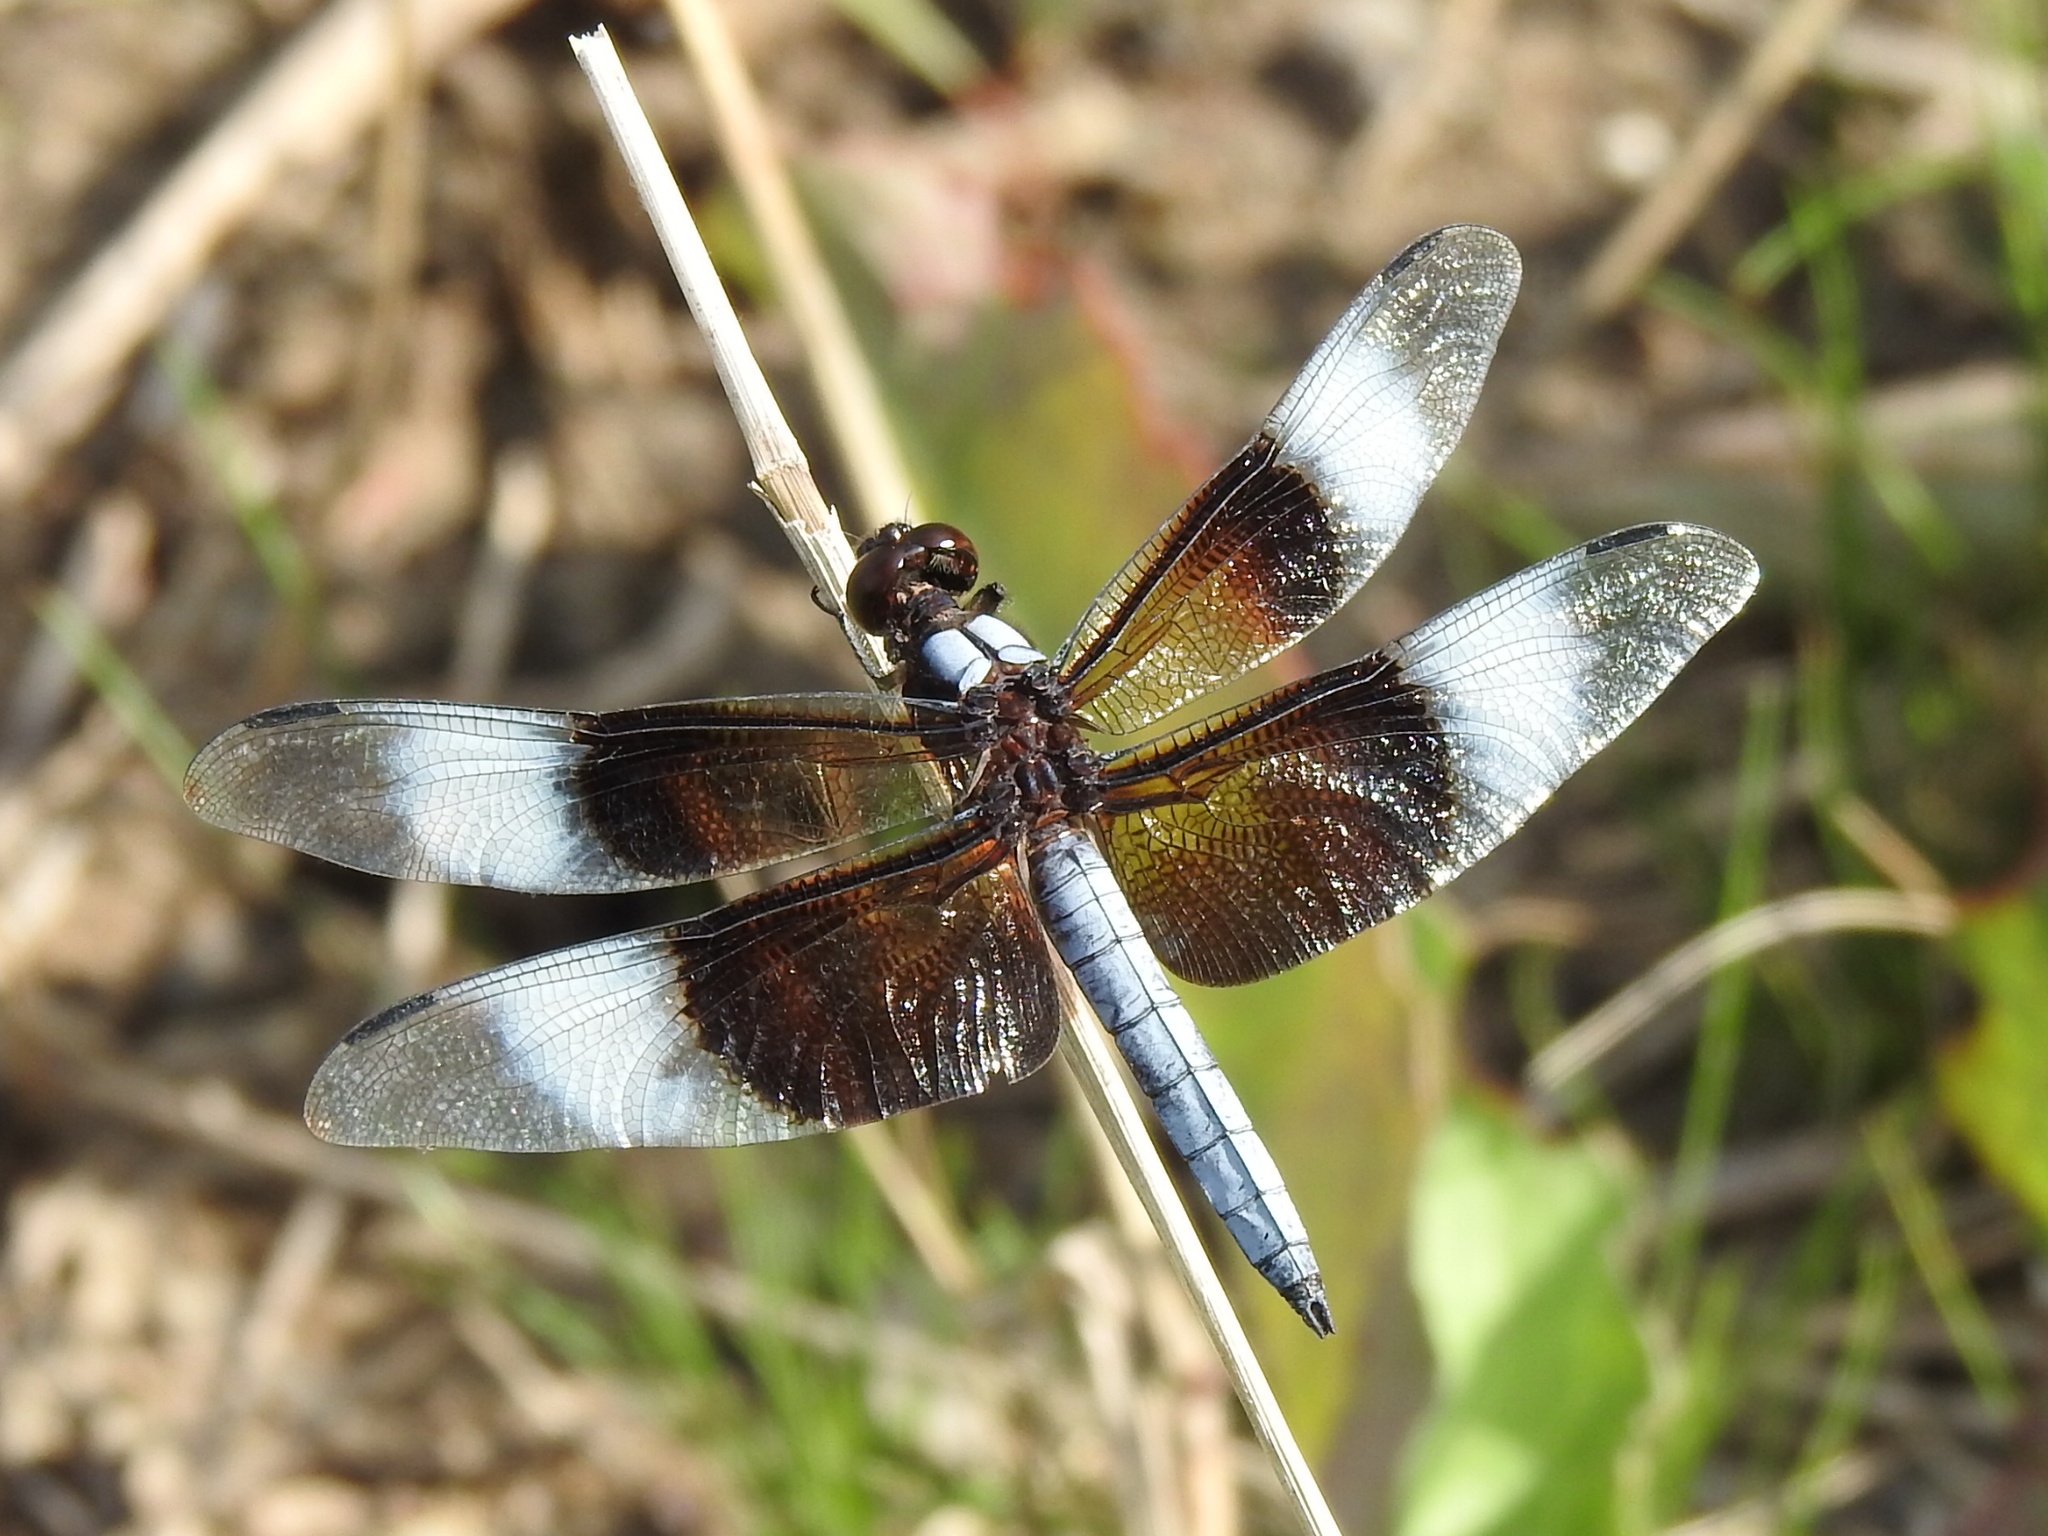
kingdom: Animalia
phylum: Arthropoda
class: Insecta
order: Odonata
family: Libellulidae
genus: Libellula
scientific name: Libellula luctuosa
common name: Widow skimmer
